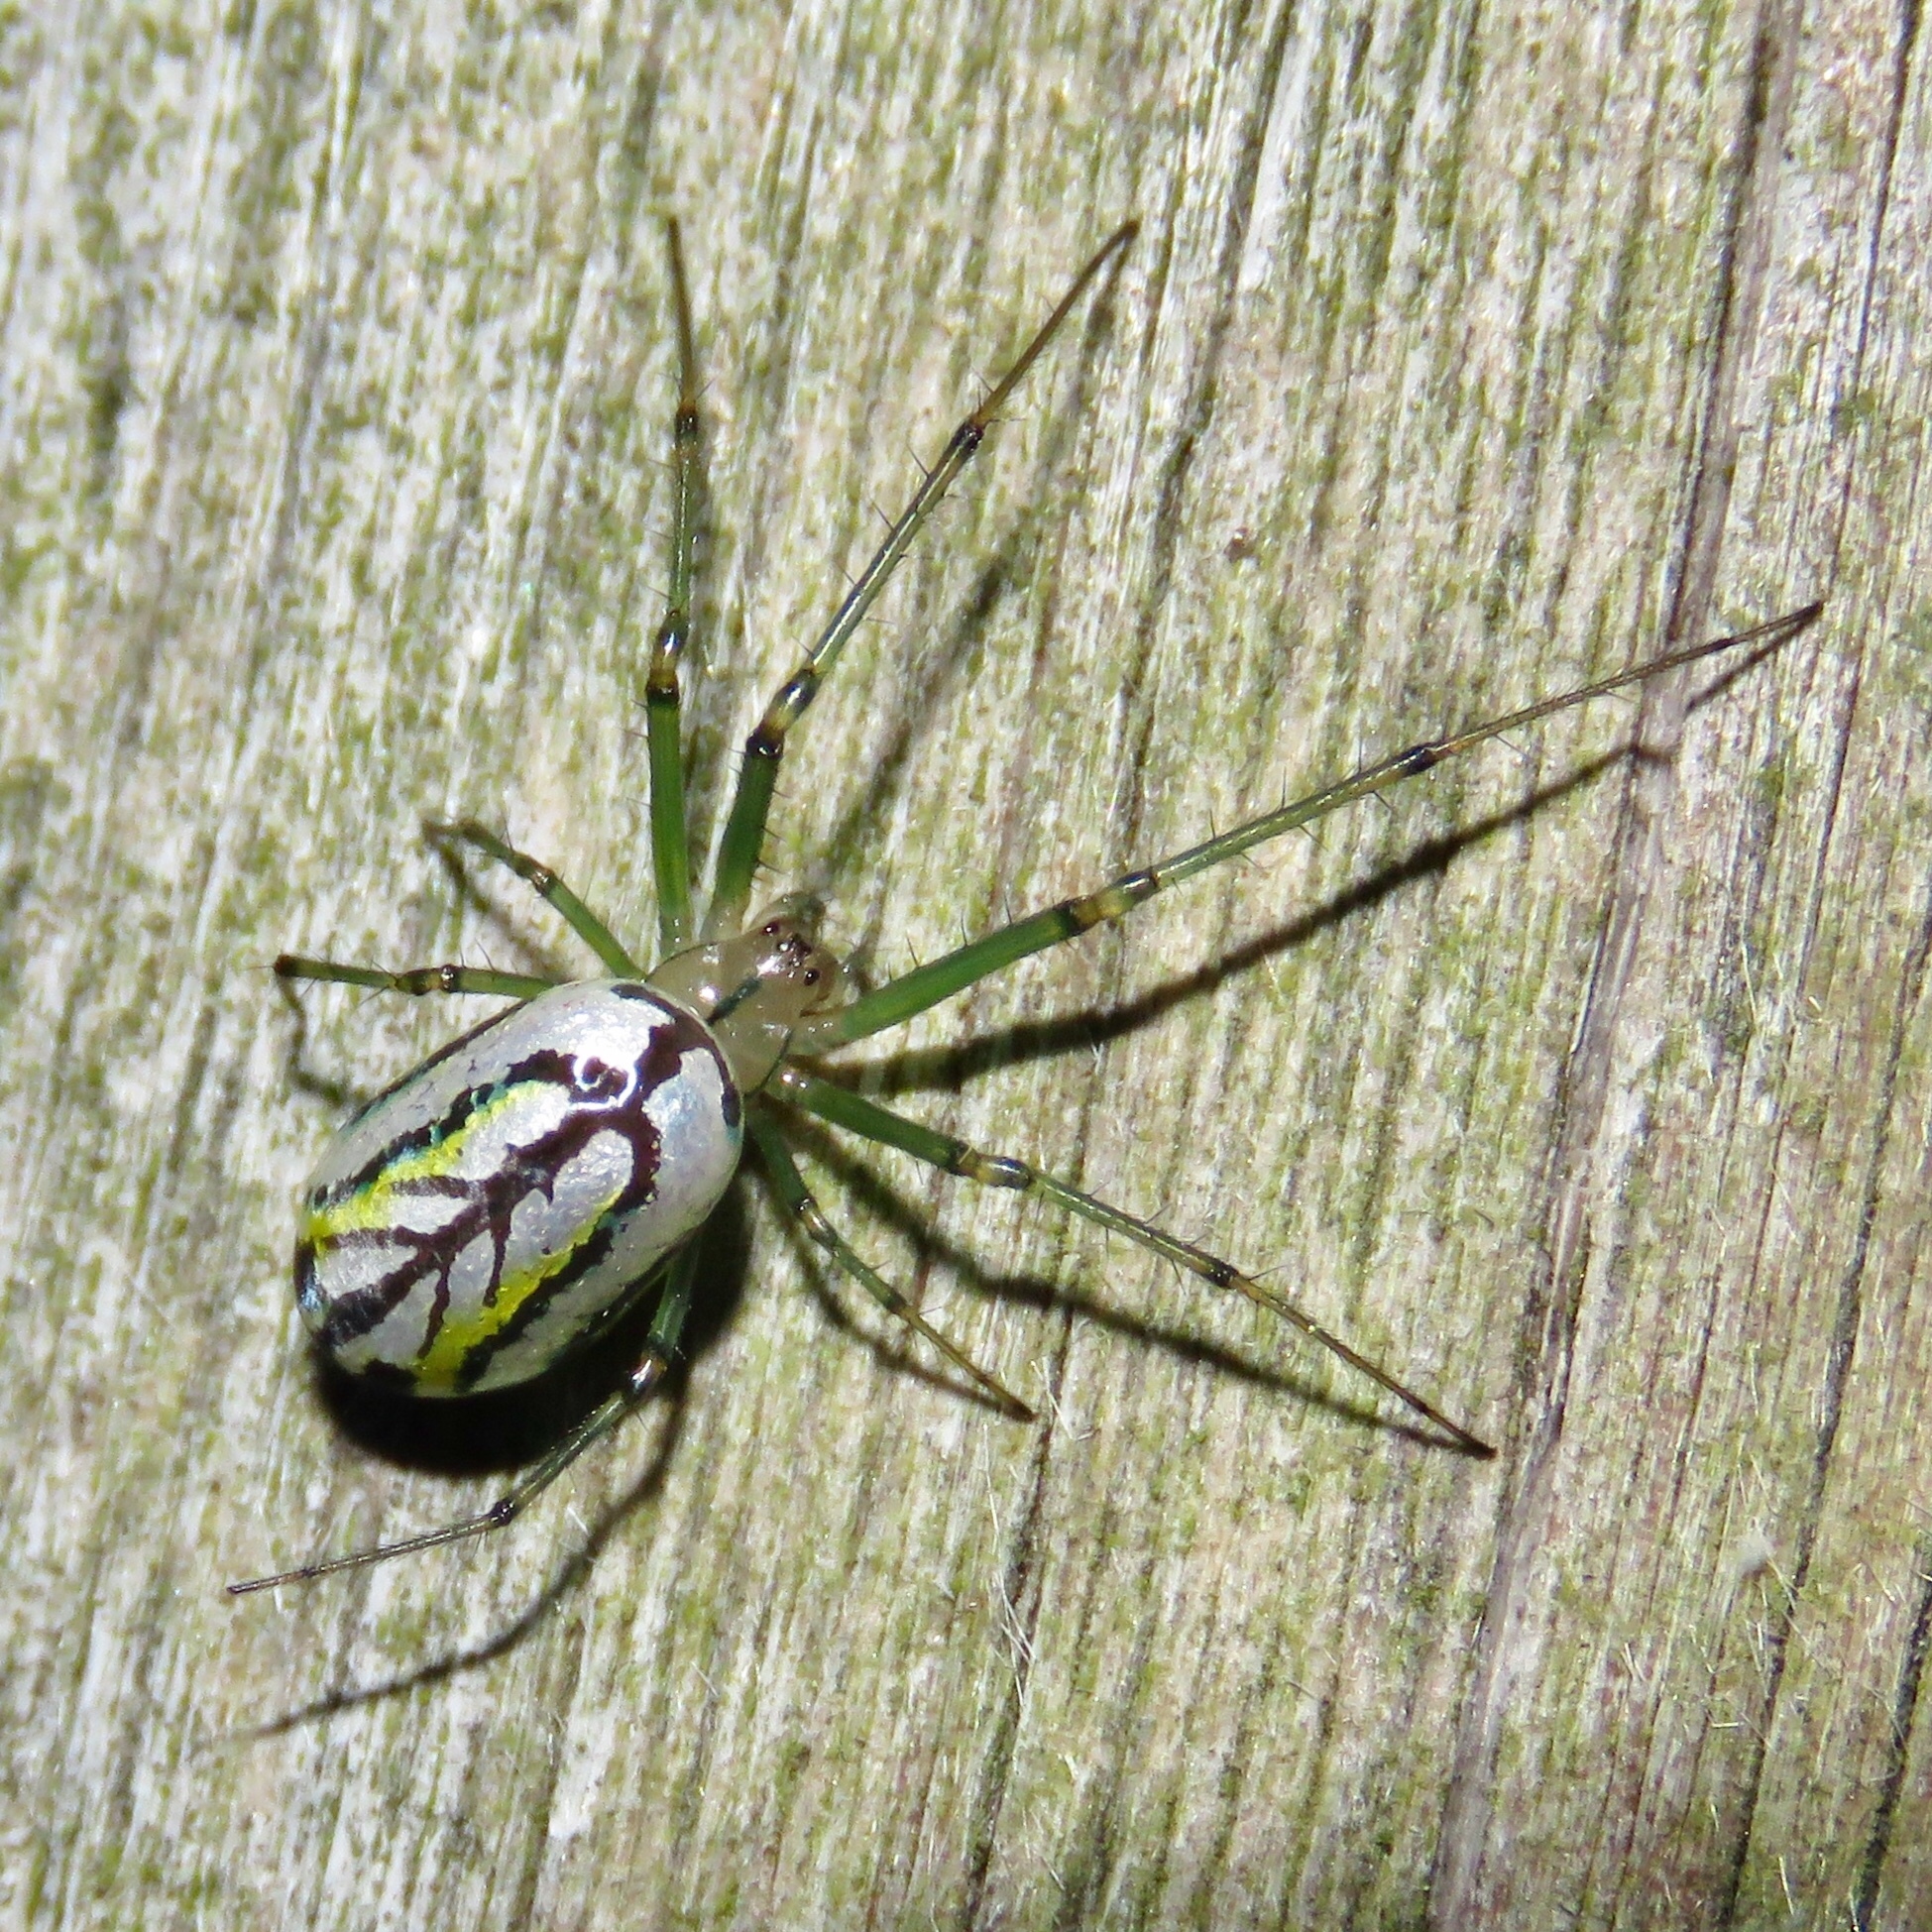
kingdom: Animalia
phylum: Arthropoda
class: Arachnida
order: Araneae
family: Tetragnathidae
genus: Leucauge
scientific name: Leucauge venusta
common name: Longjawed orb weavers
